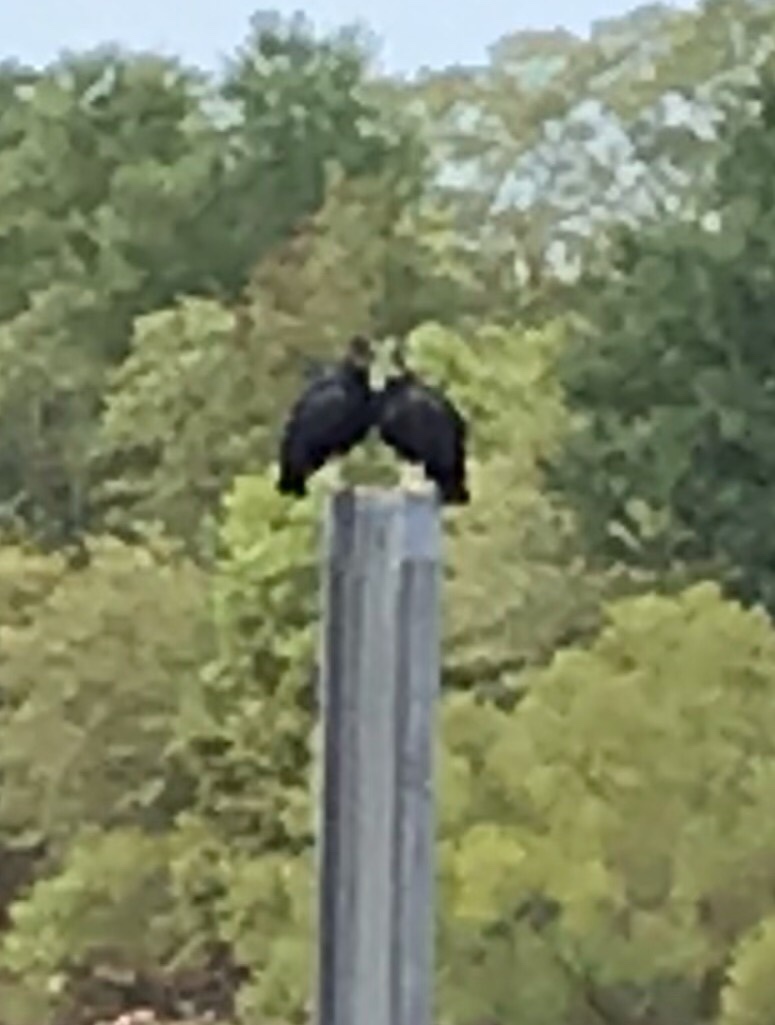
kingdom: Animalia
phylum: Chordata
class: Aves
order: Accipitriformes
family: Cathartidae
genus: Coragyps
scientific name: Coragyps atratus
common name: Black vulture
